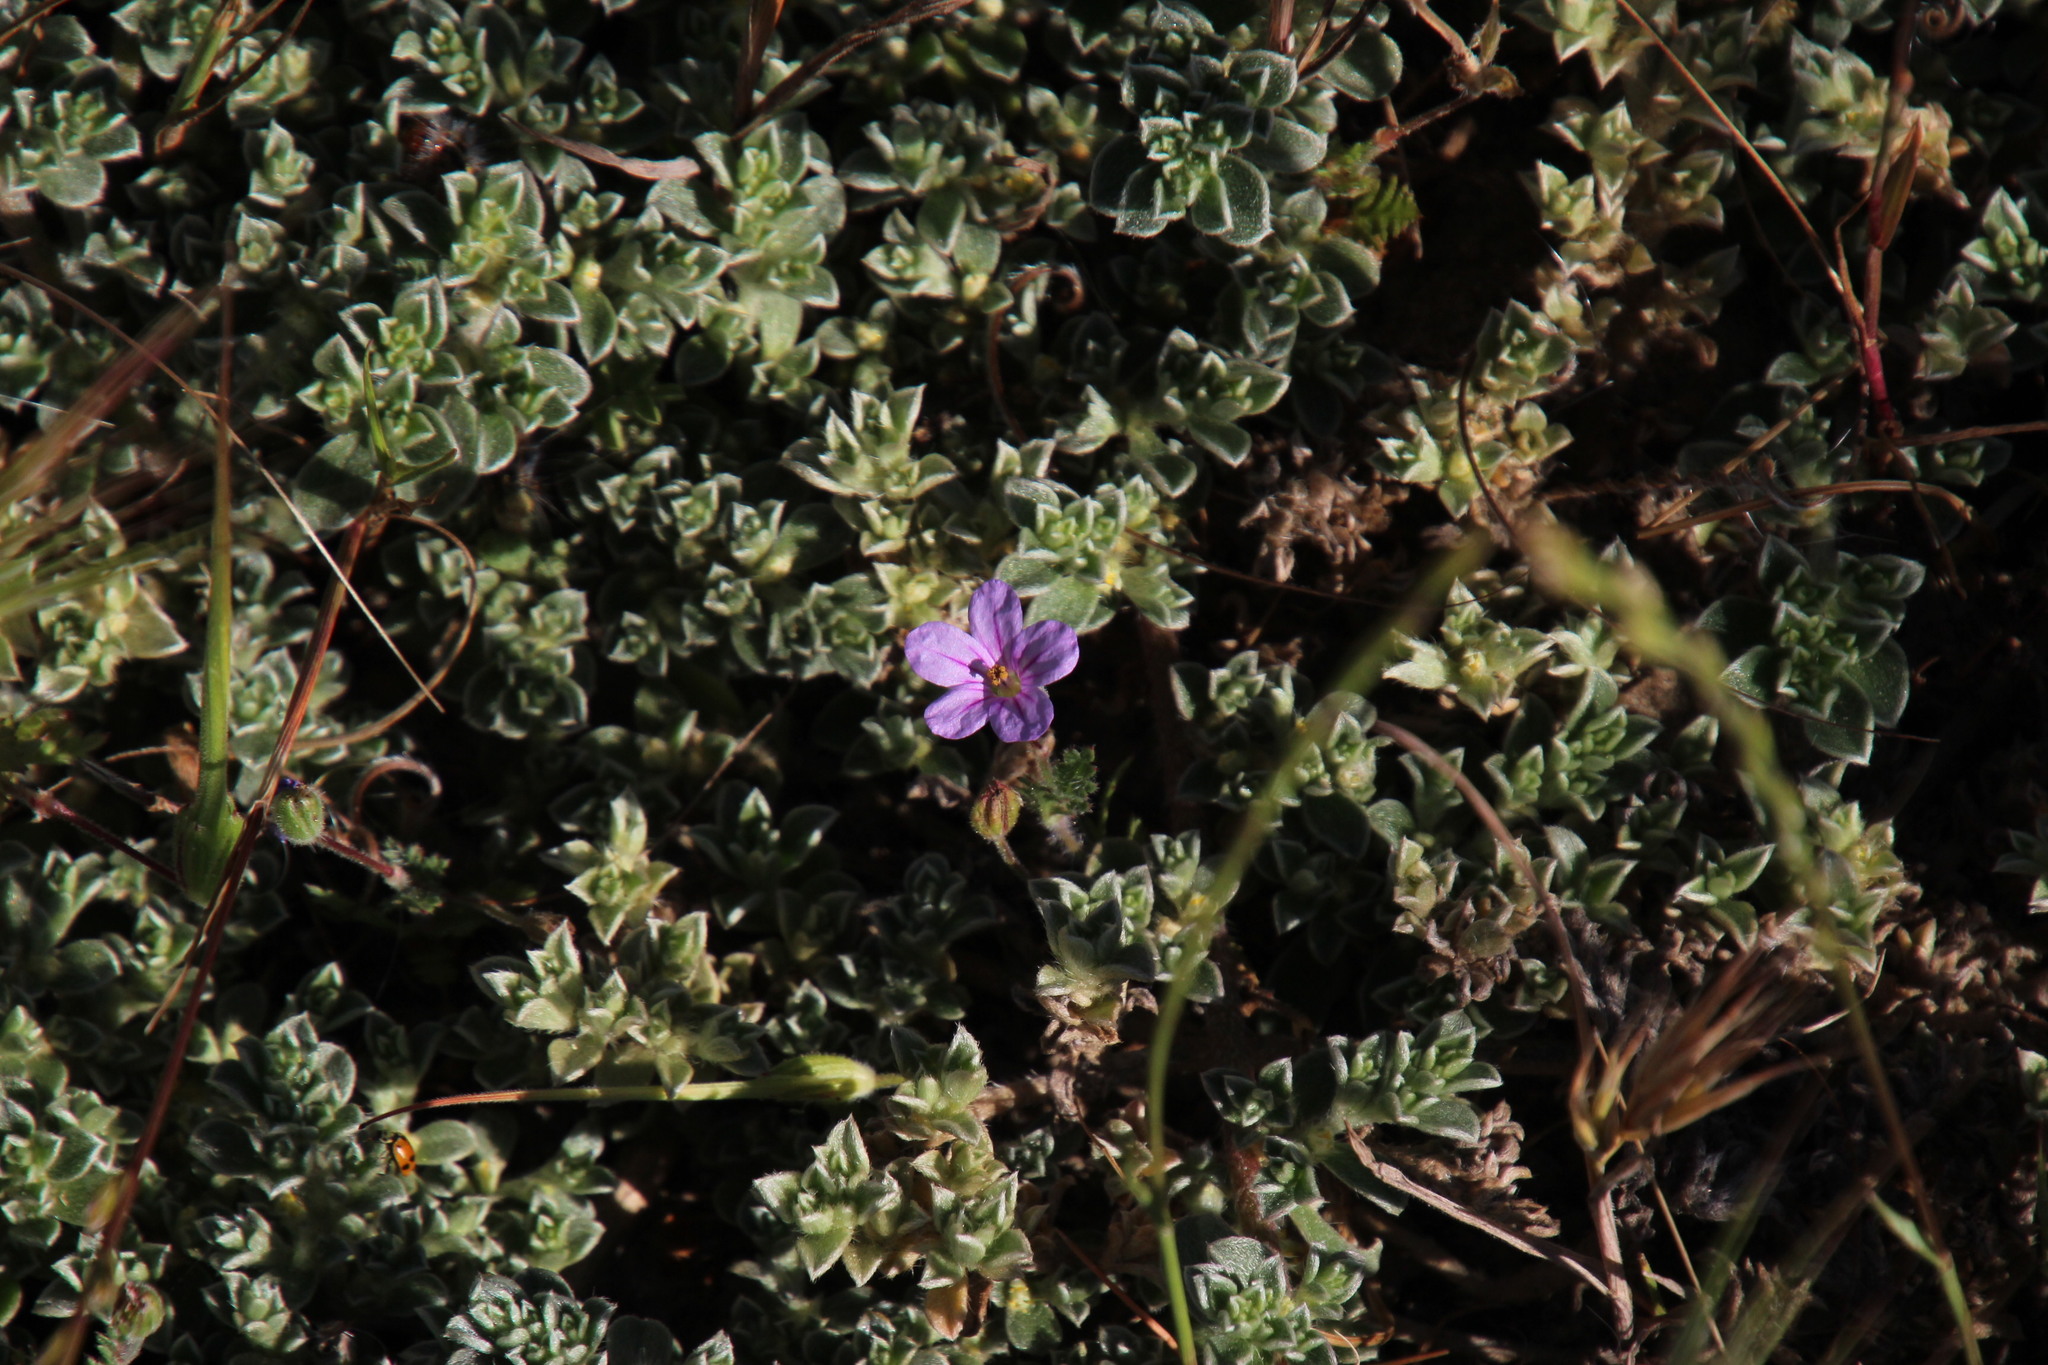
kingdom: Plantae
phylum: Tracheophyta
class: Magnoliopsida
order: Geraniales
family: Geraniaceae
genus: Erodium
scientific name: Erodium botrys
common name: Mediterranean stork's-bill
